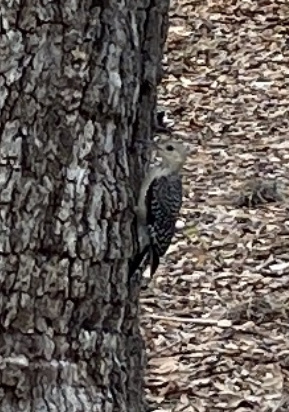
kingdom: Animalia
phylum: Chordata
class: Aves
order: Piciformes
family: Picidae
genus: Melanerpes
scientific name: Melanerpes carolinus
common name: Red-bellied woodpecker
